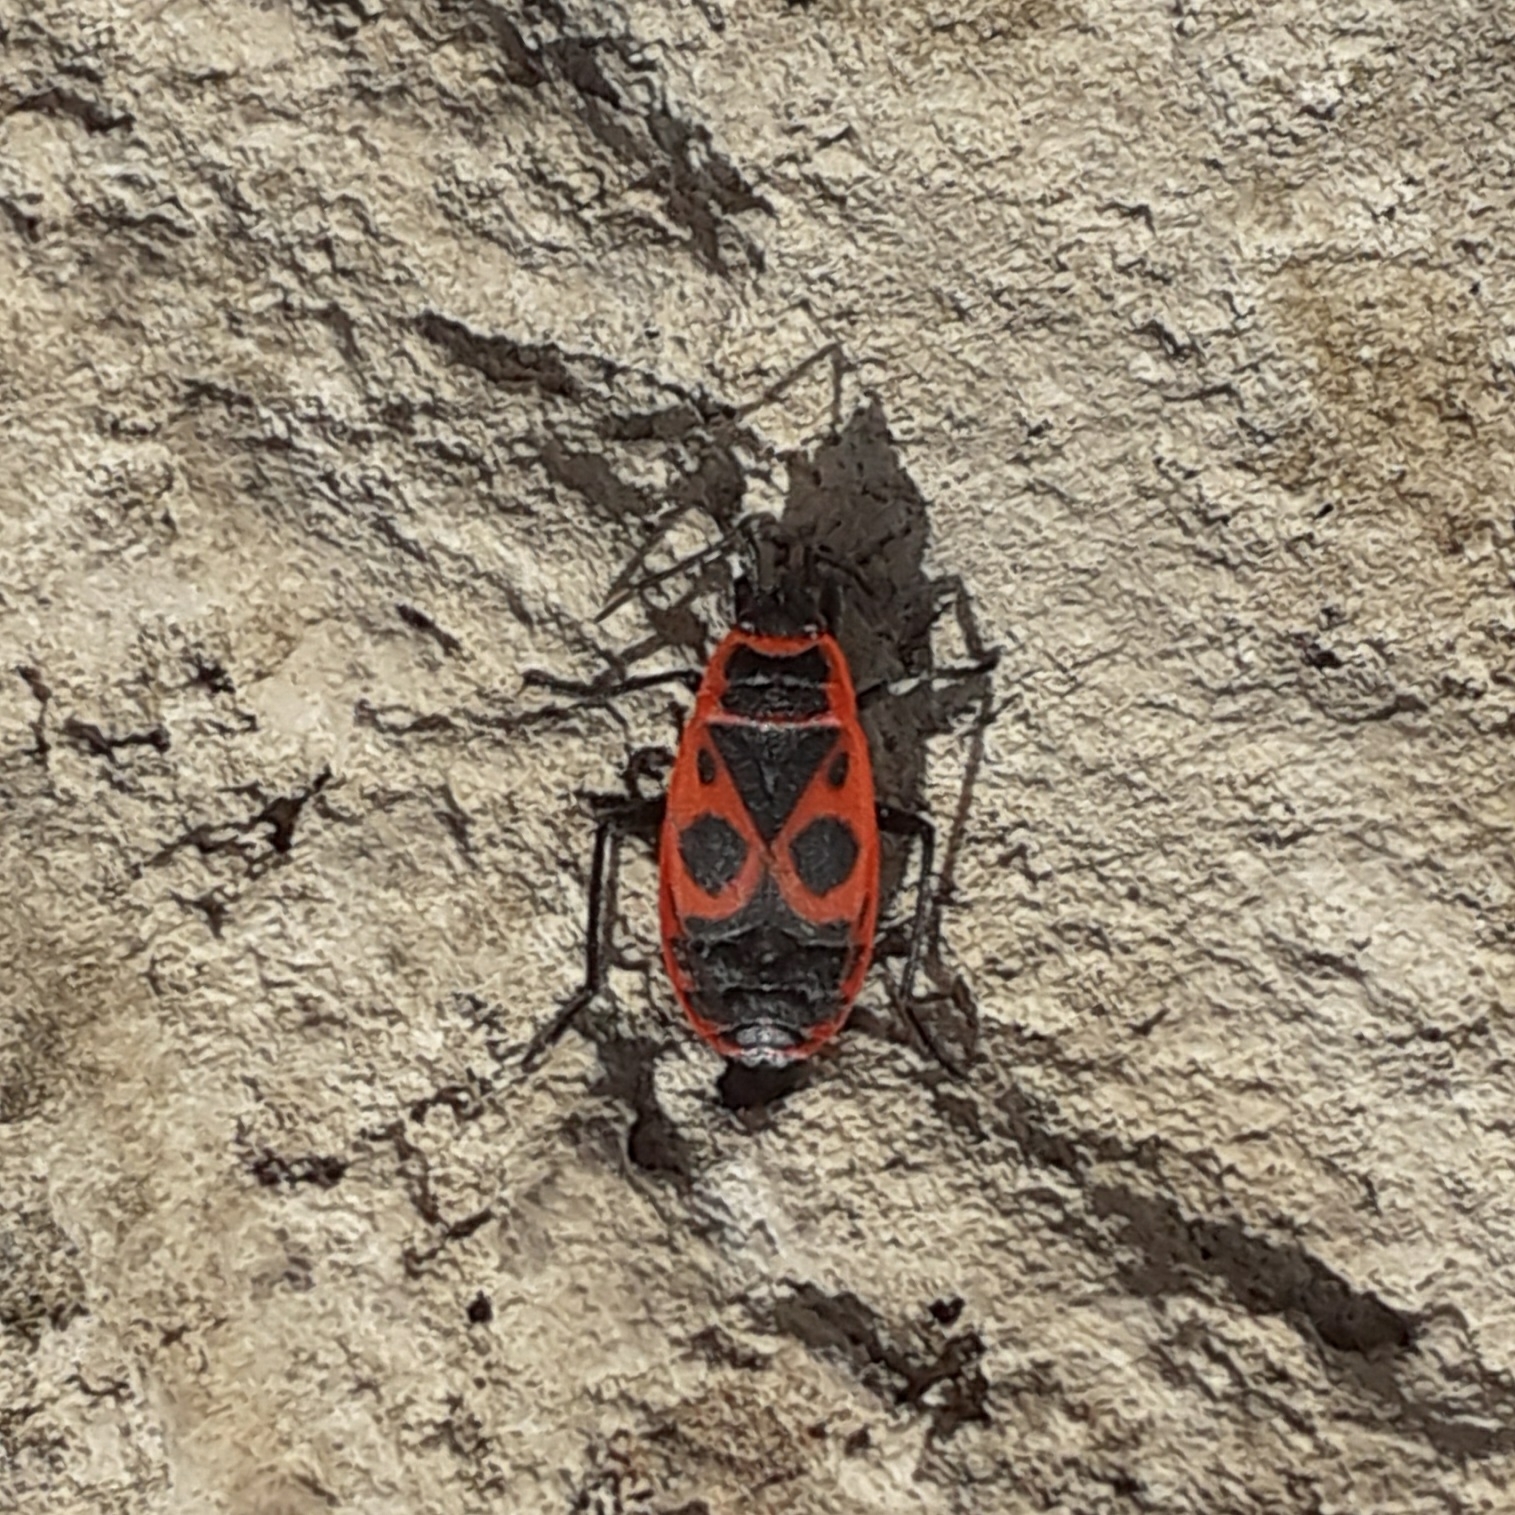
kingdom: Animalia
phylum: Arthropoda
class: Insecta
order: Hemiptera
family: Pyrrhocoridae
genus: Pyrrhocoris
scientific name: Pyrrhocoris apterus
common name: Firebug
